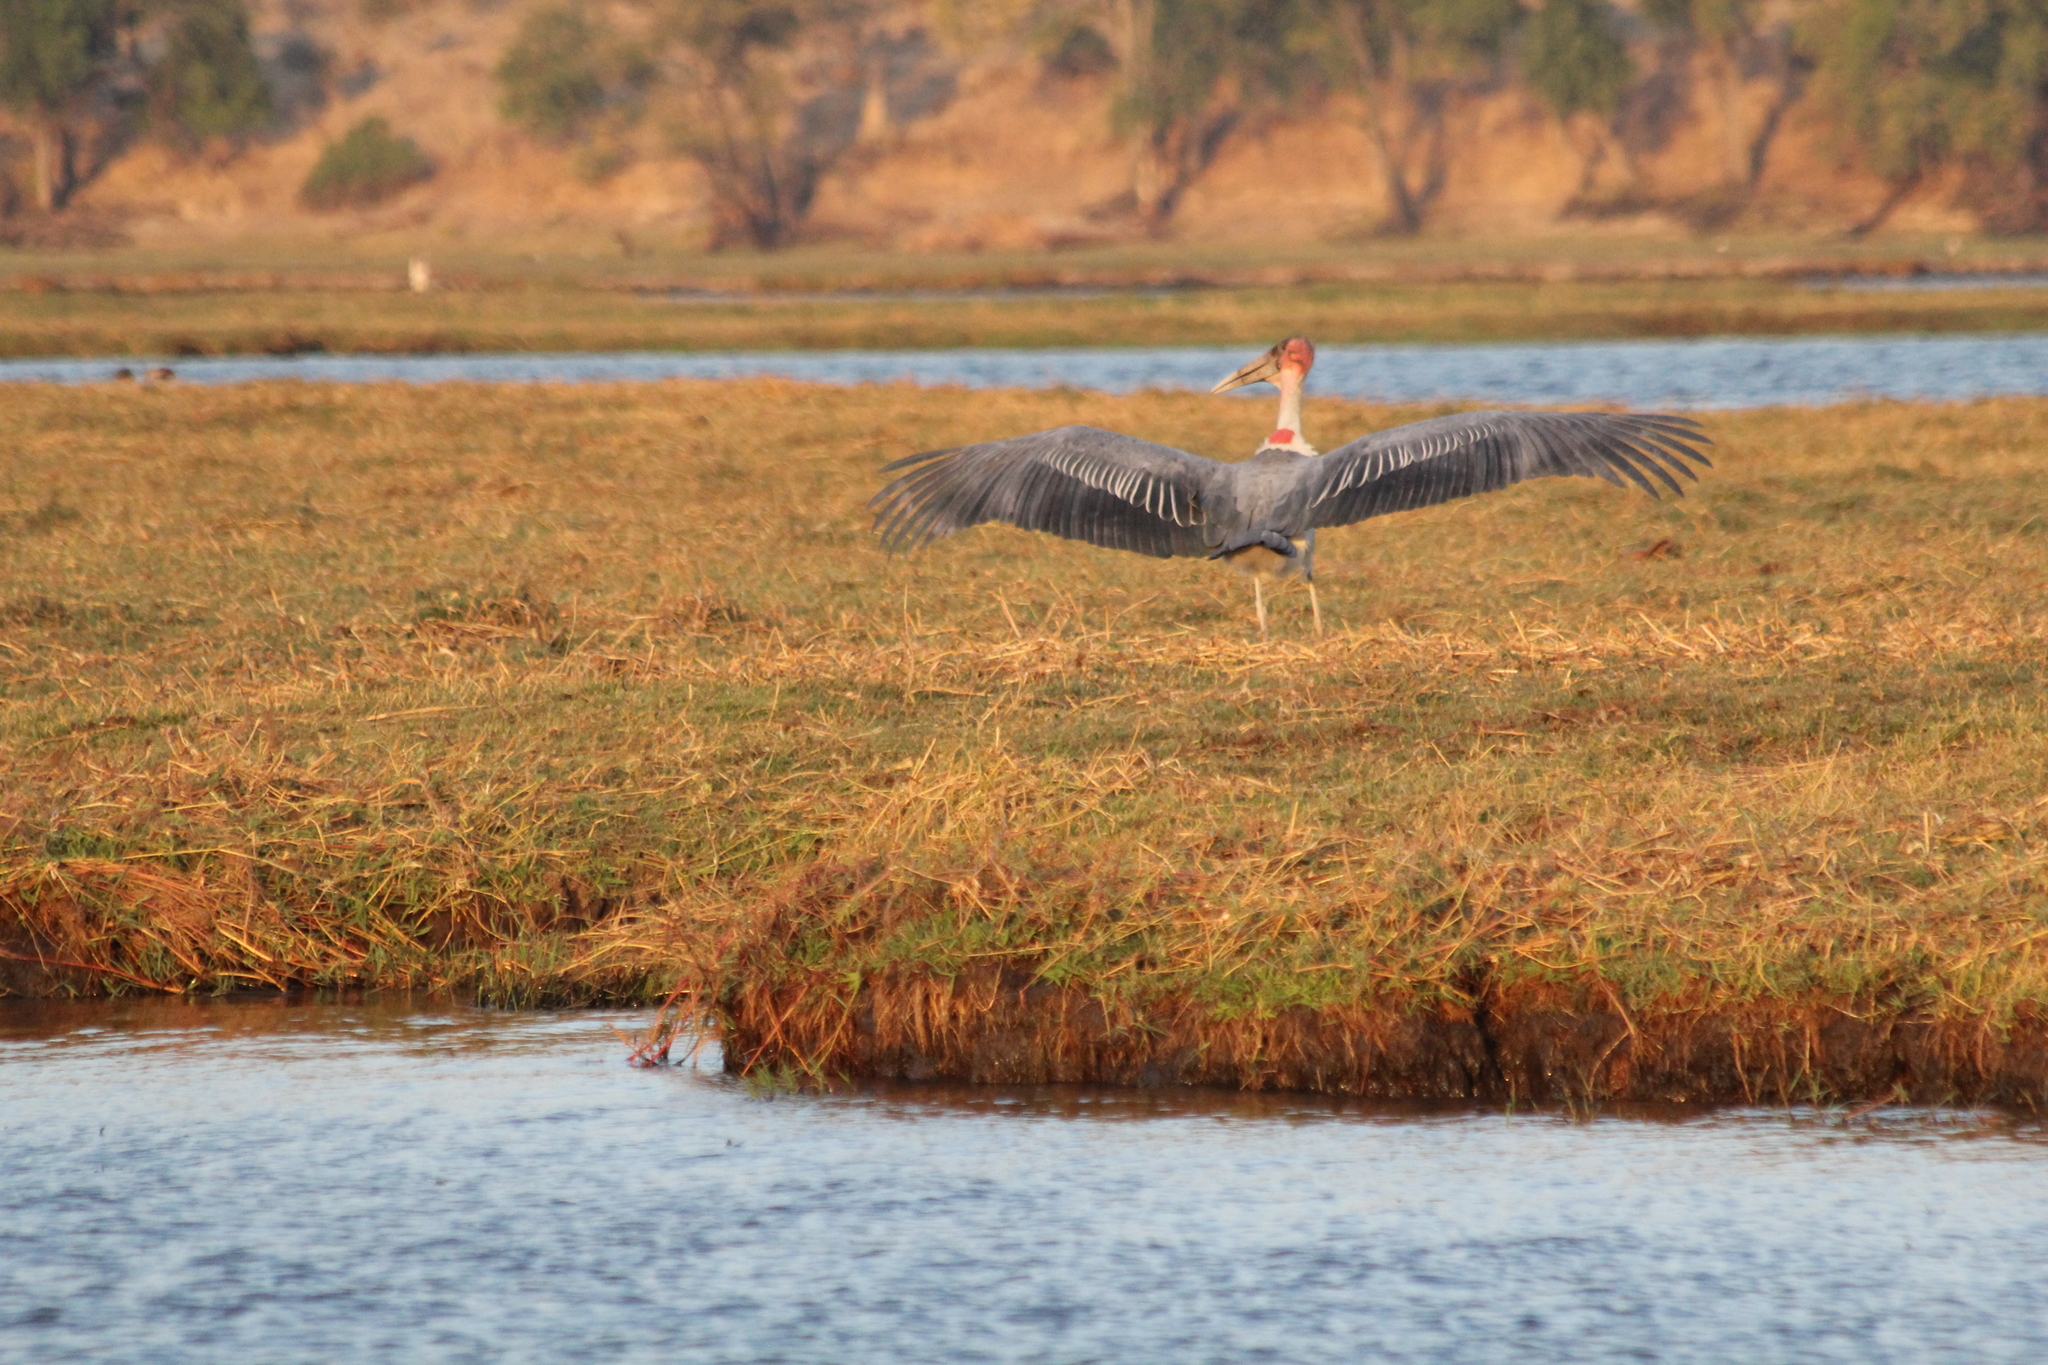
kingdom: Animalia
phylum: Chordata
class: Aves
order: Ciconiiformes
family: Ciconiidae
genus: Leptoptilos
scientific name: Leptoptilos crumenifer
